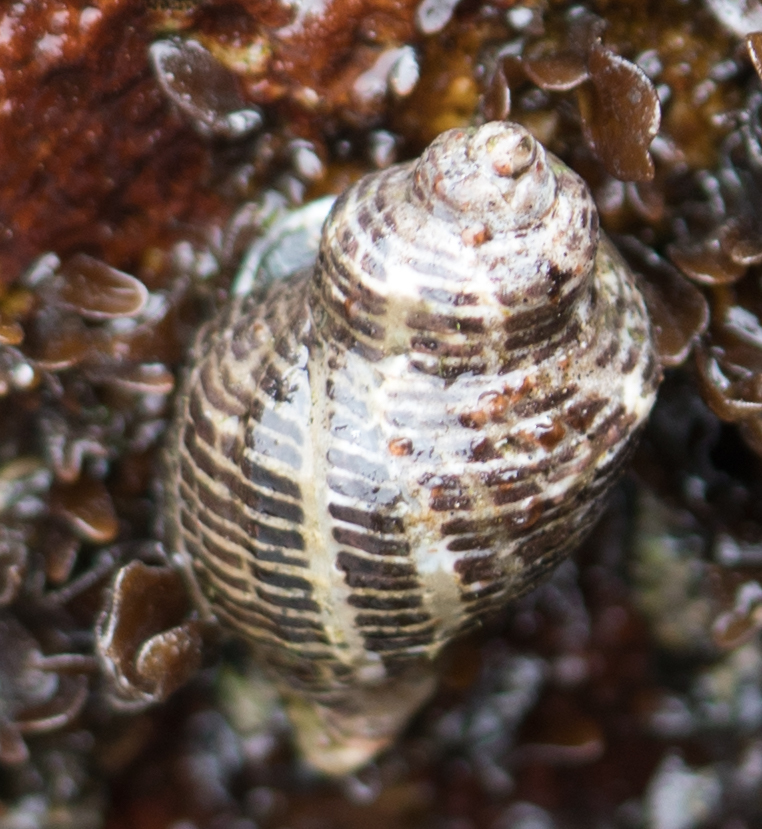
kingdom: Animalia
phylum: Mollusca
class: Gastropoda
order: Neogastropoda
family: Muricidae
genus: Acanthinucella
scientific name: Acanthinucella spirata
